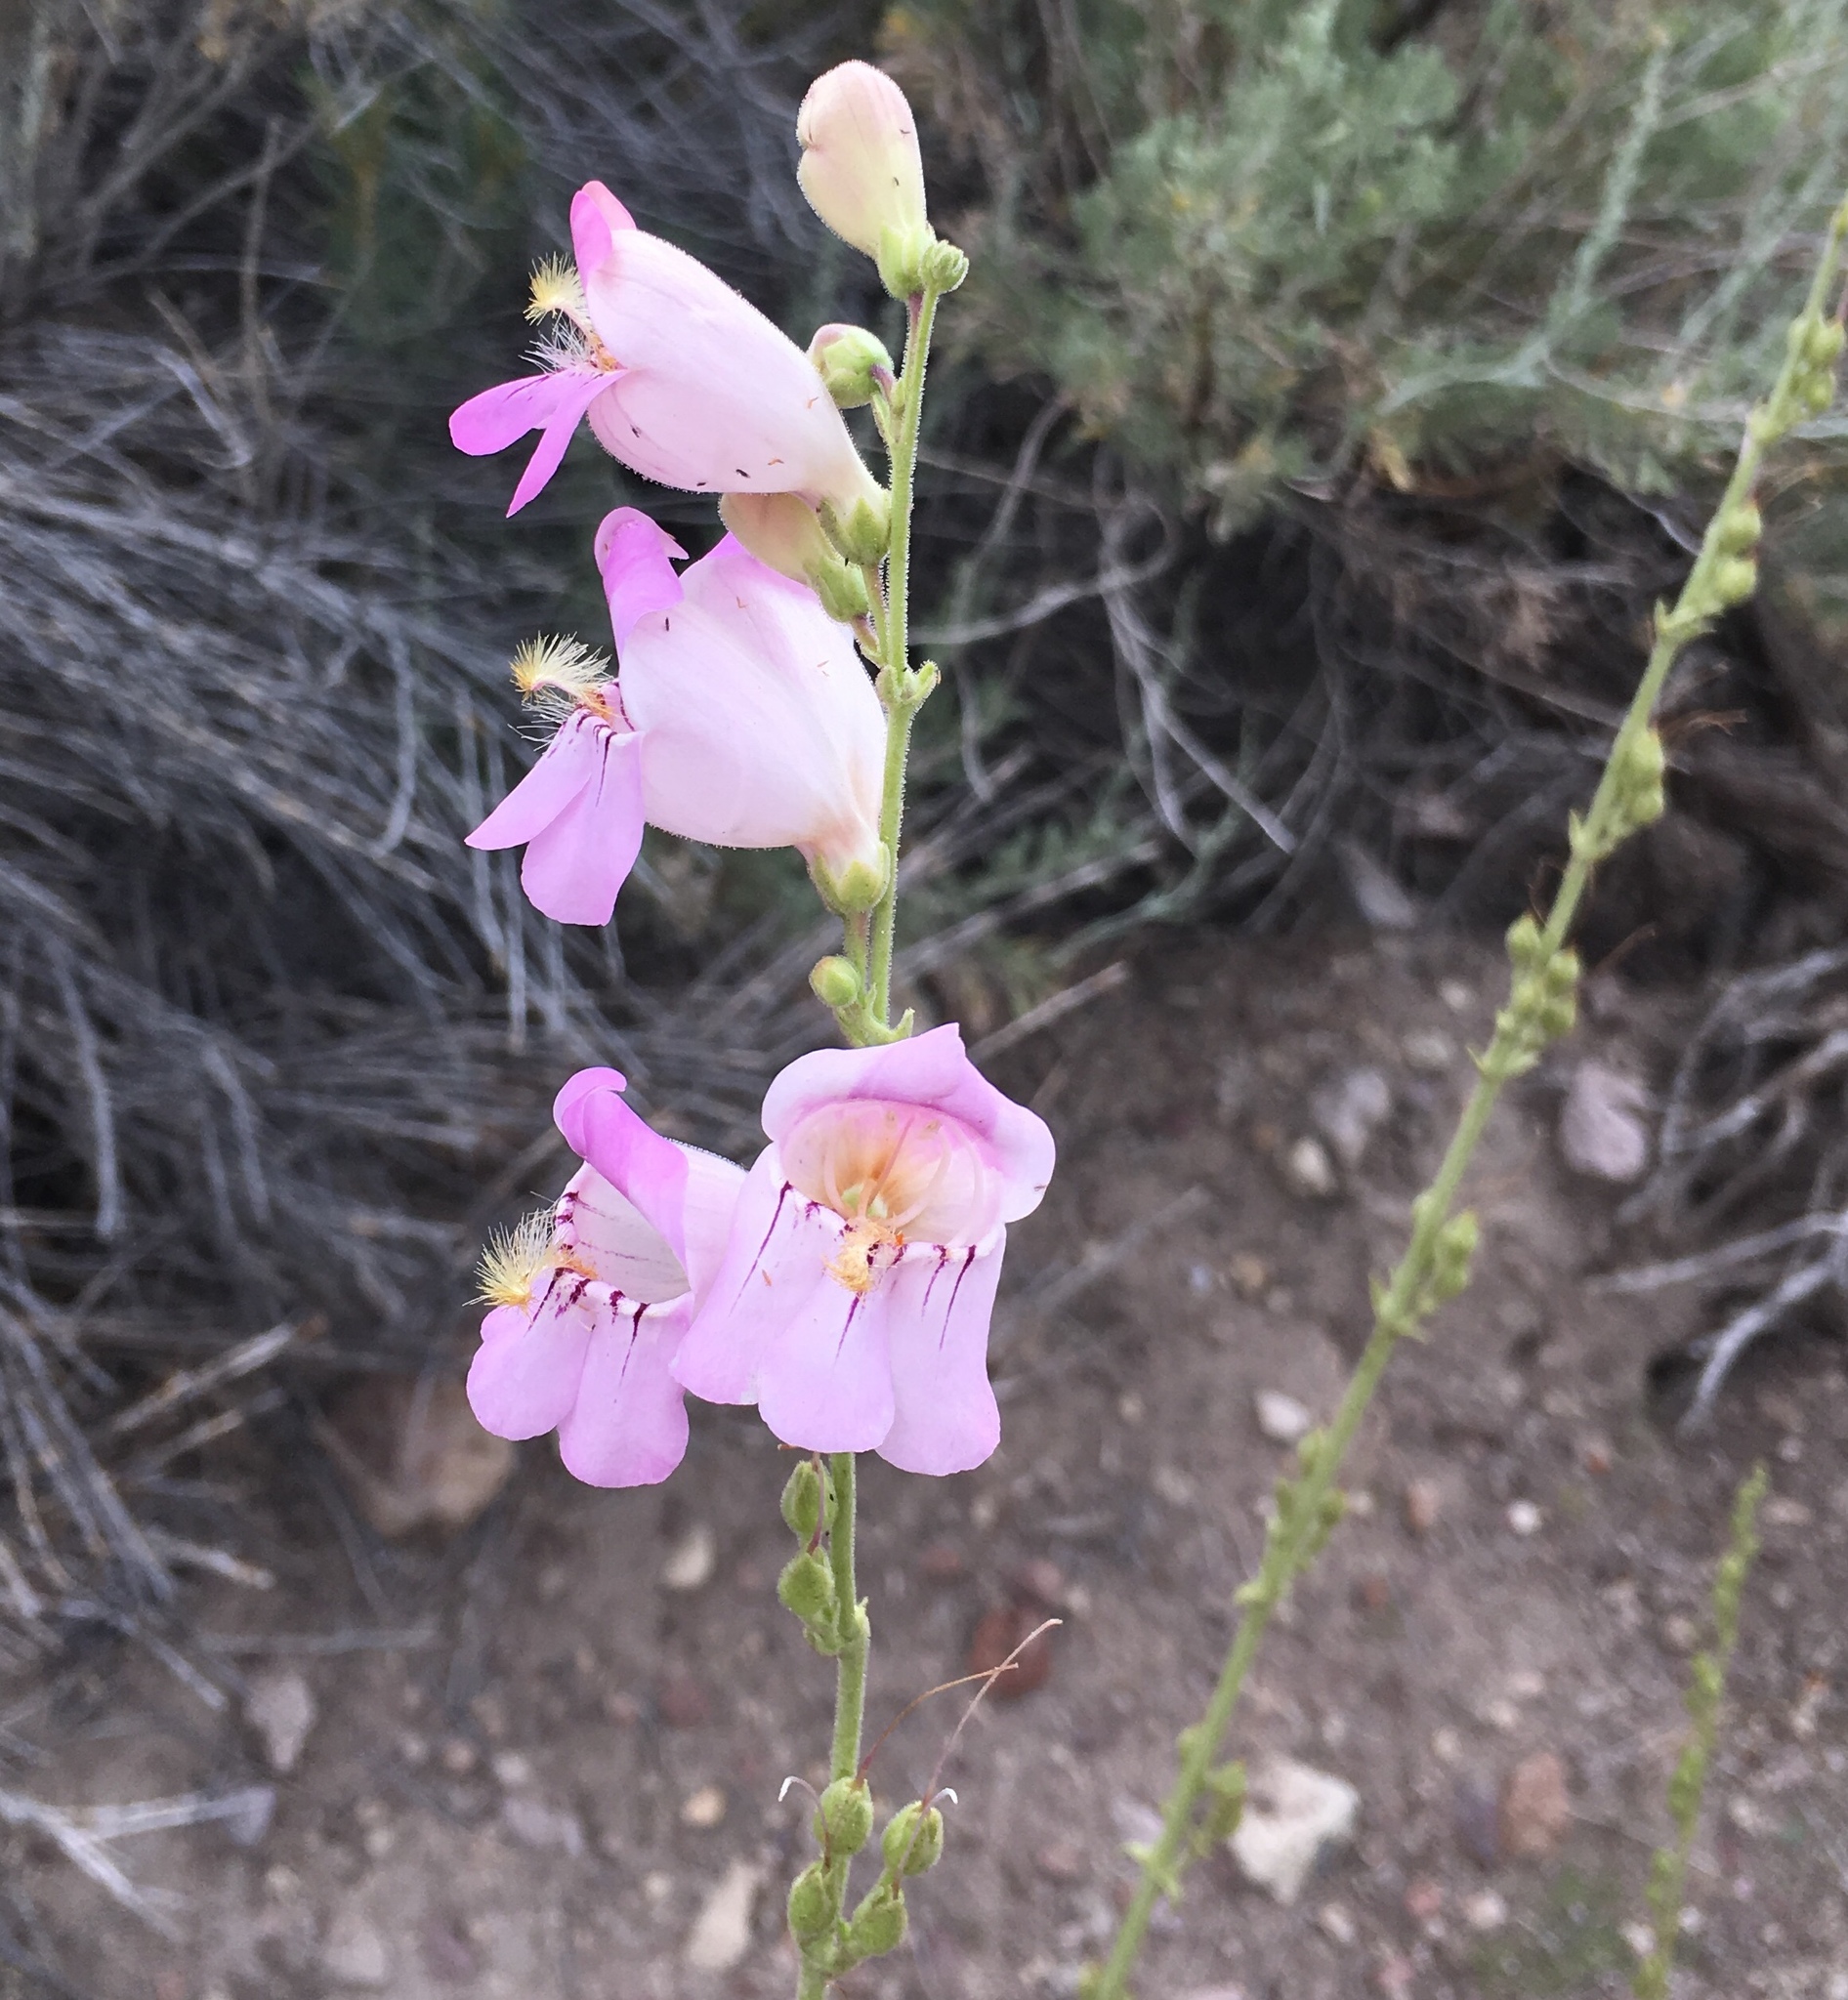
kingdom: Plantae
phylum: Tracheophyta
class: Magnoliopsida
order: Lamiales
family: Plantaginaceae
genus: Penstemon
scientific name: Penstemon palmeri
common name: Palmer penstemon
